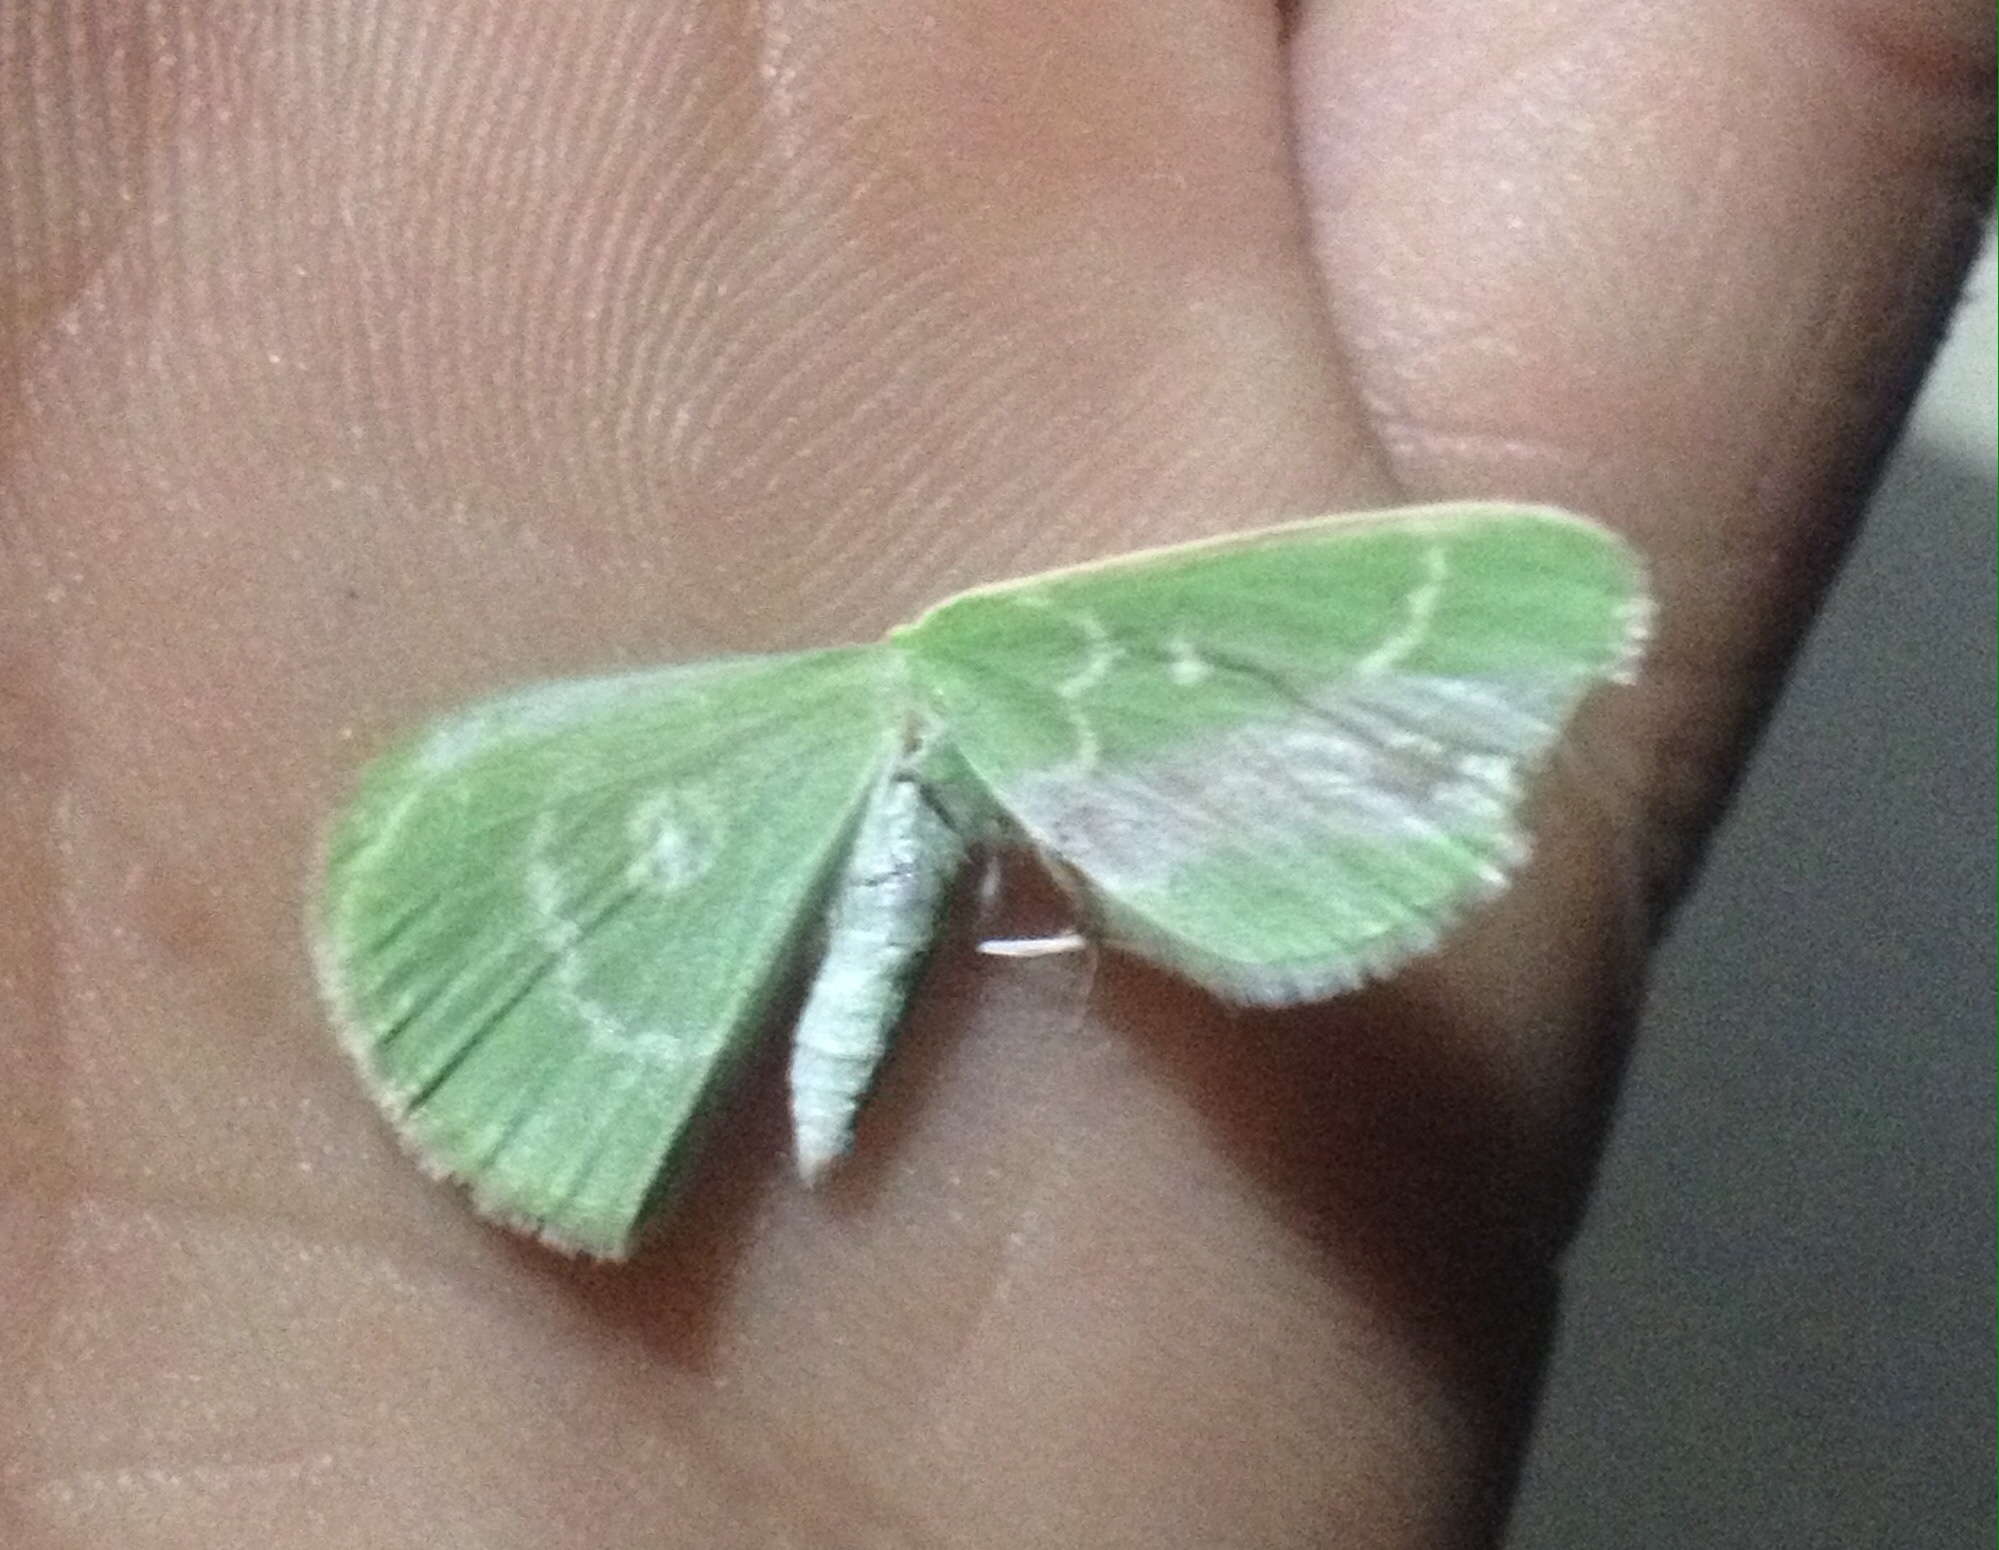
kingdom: Animalia
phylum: Arthropoda
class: Insecta
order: Lepidoptera
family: Geometridae
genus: Thetidia
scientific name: Thetidia smaragdaria
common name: Essex emerald
